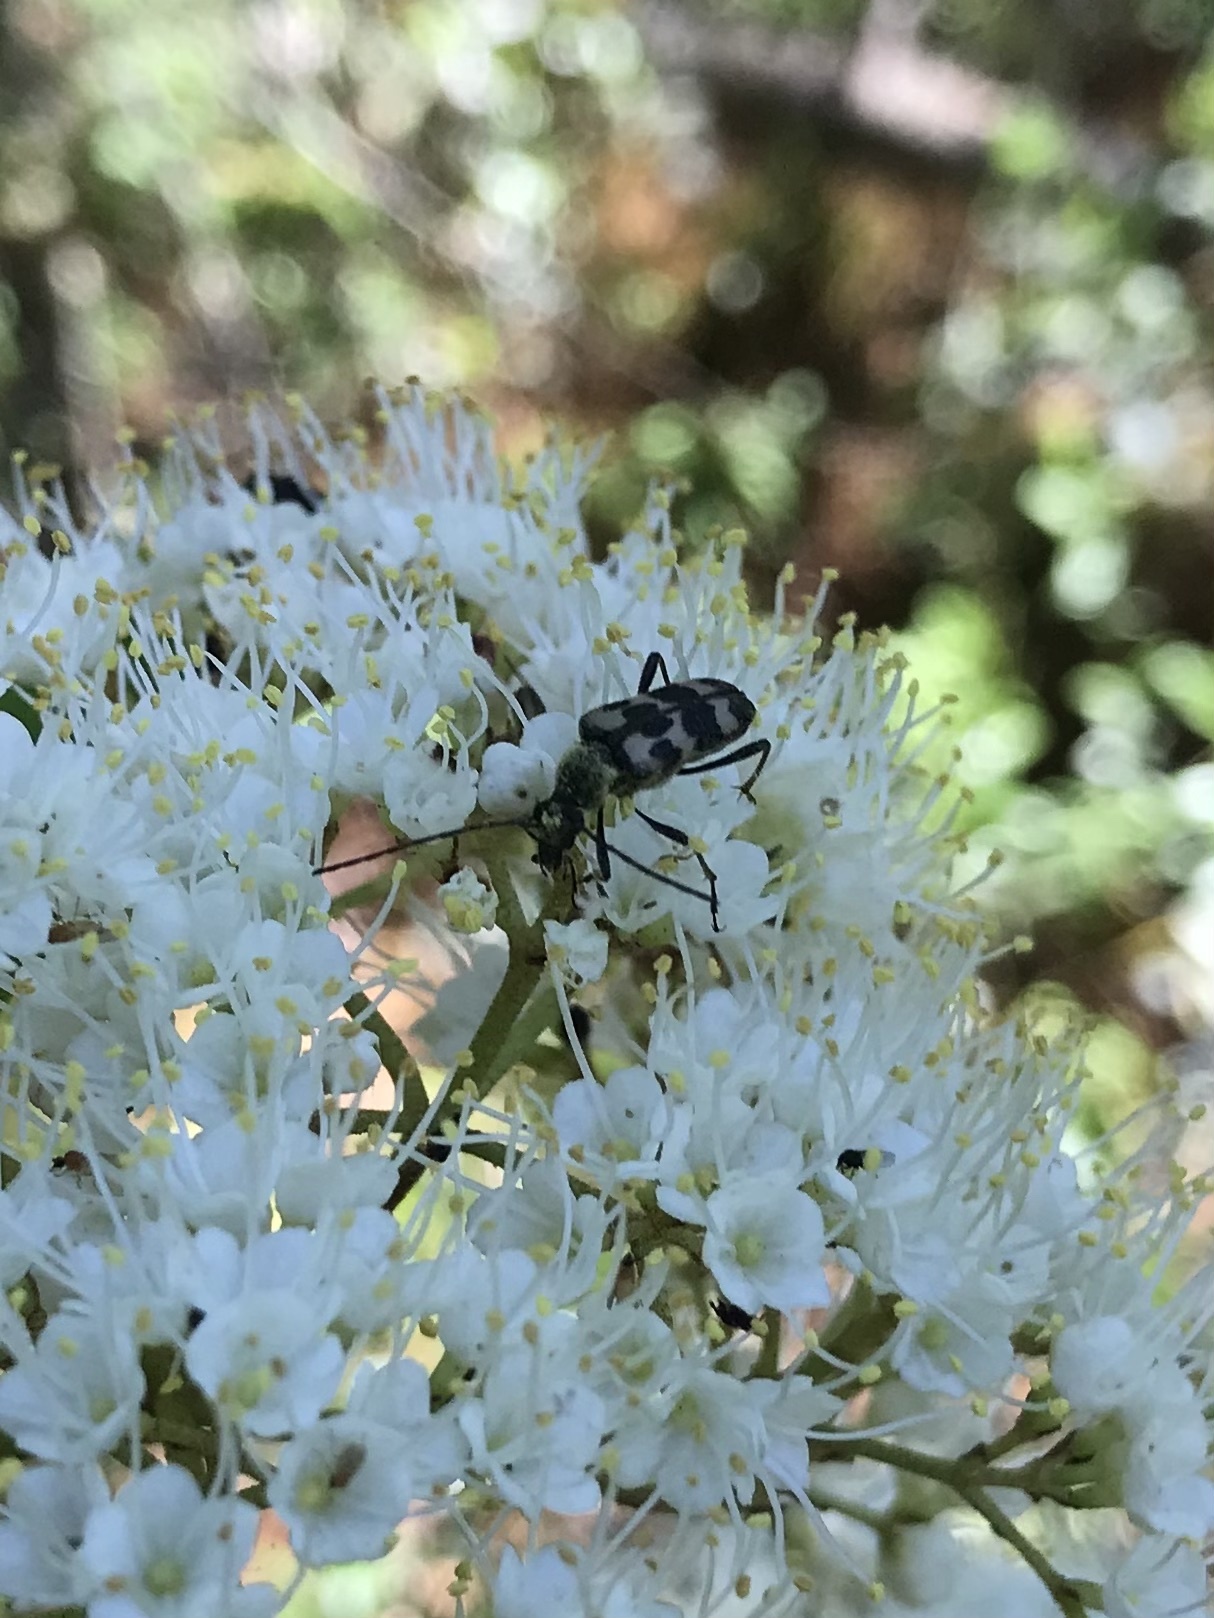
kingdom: Animalia
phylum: Arthropoda
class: Insecta
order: Coleoptera
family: Cerambycidae
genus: Judolia
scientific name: Judolia montivagans
